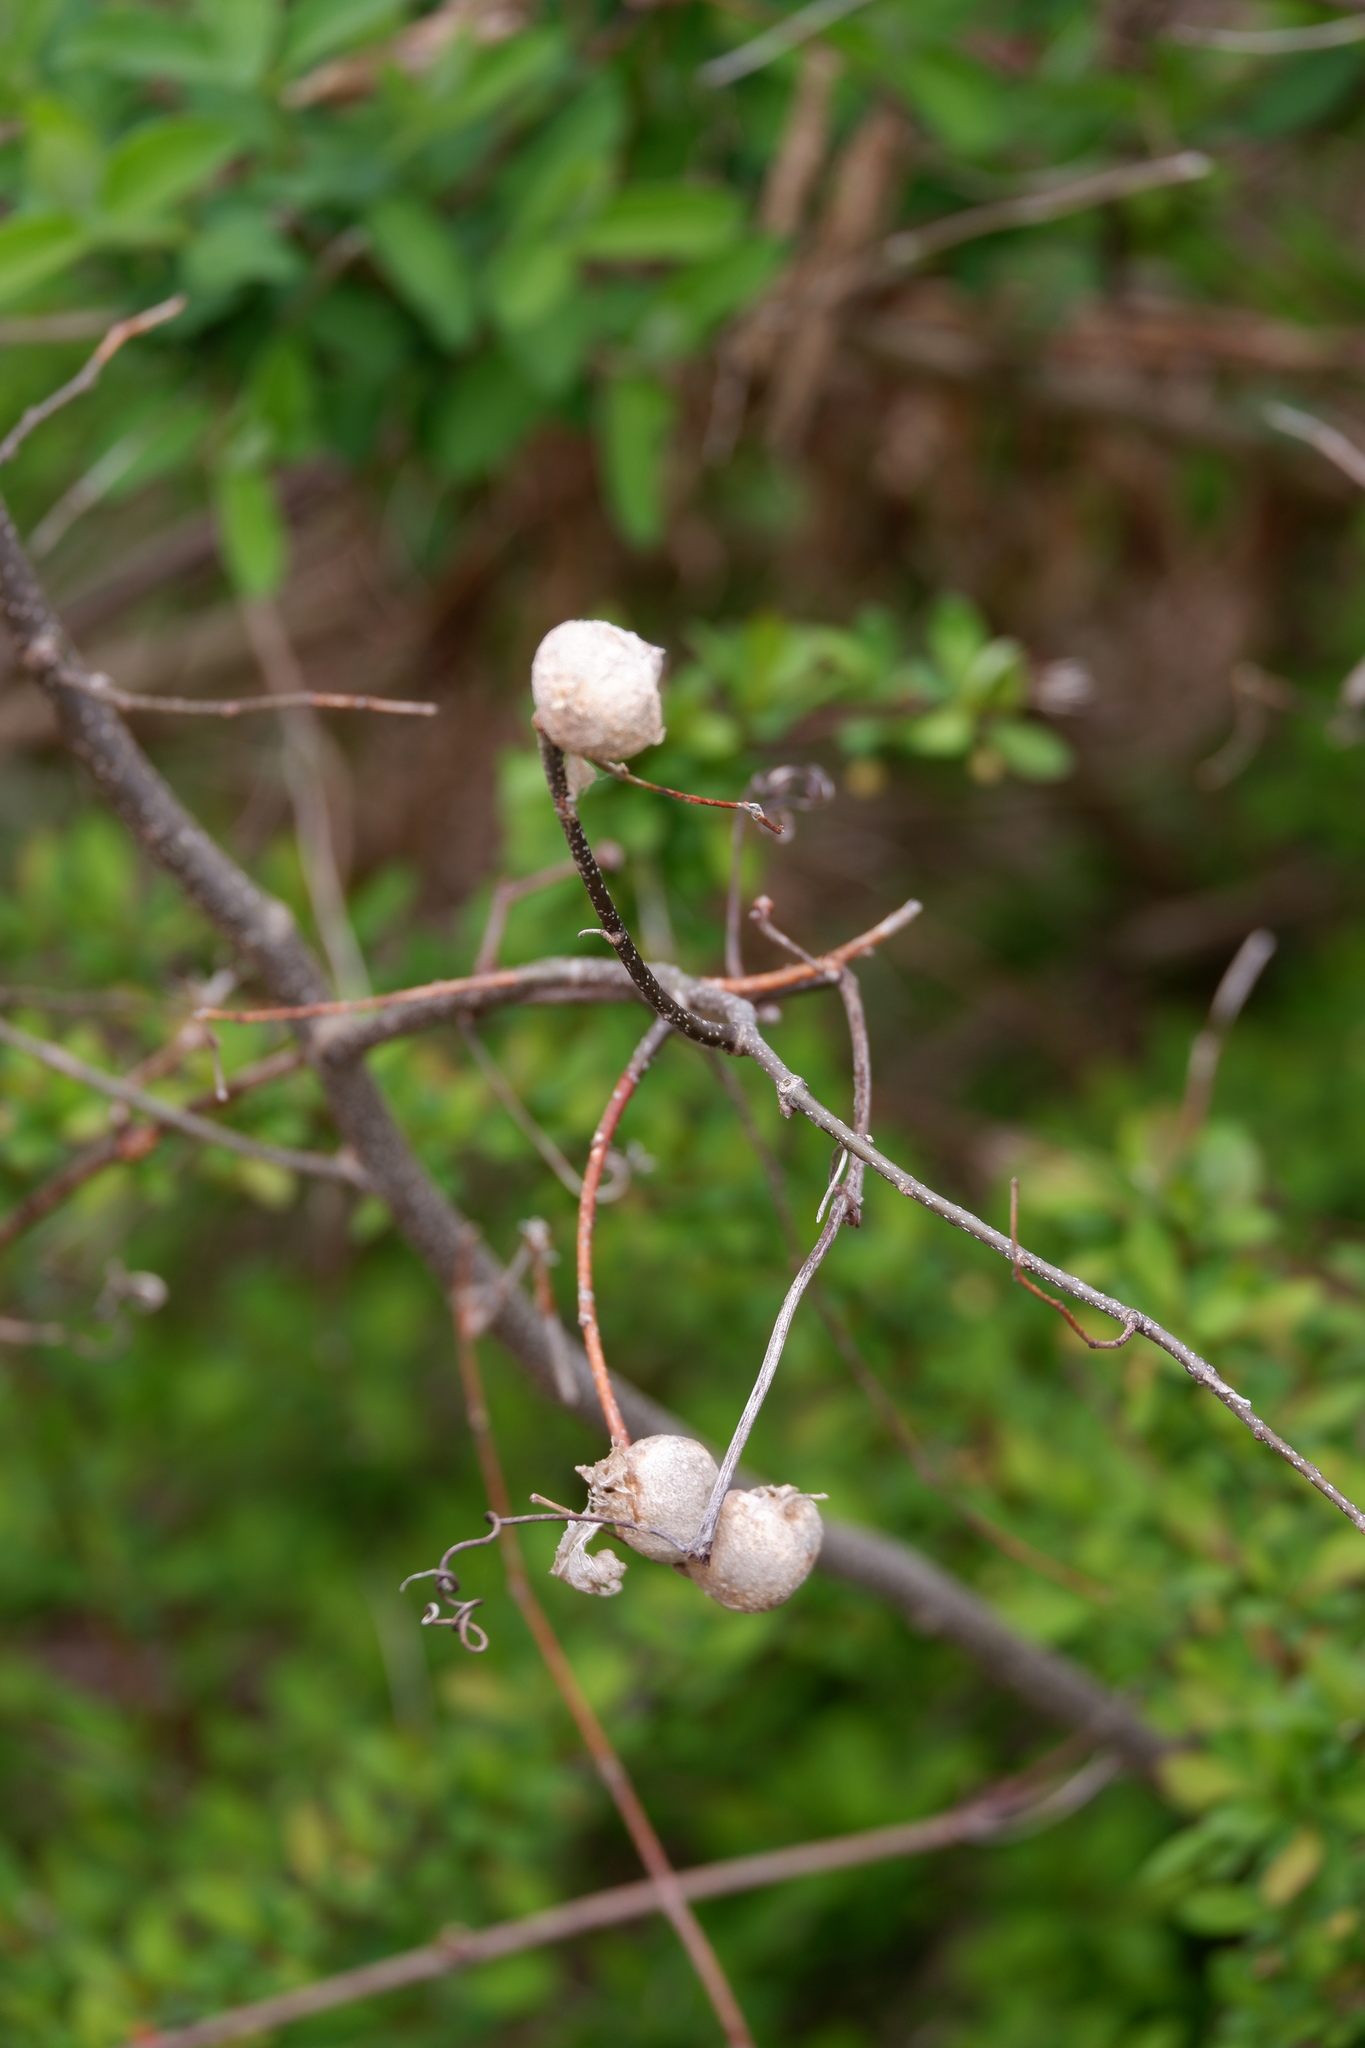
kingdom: Animalia
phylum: Arthropoda
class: Insecta
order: Hemiptera
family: Aphalaridae
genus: Pachypsylla
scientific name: Pachypsylla venusta
